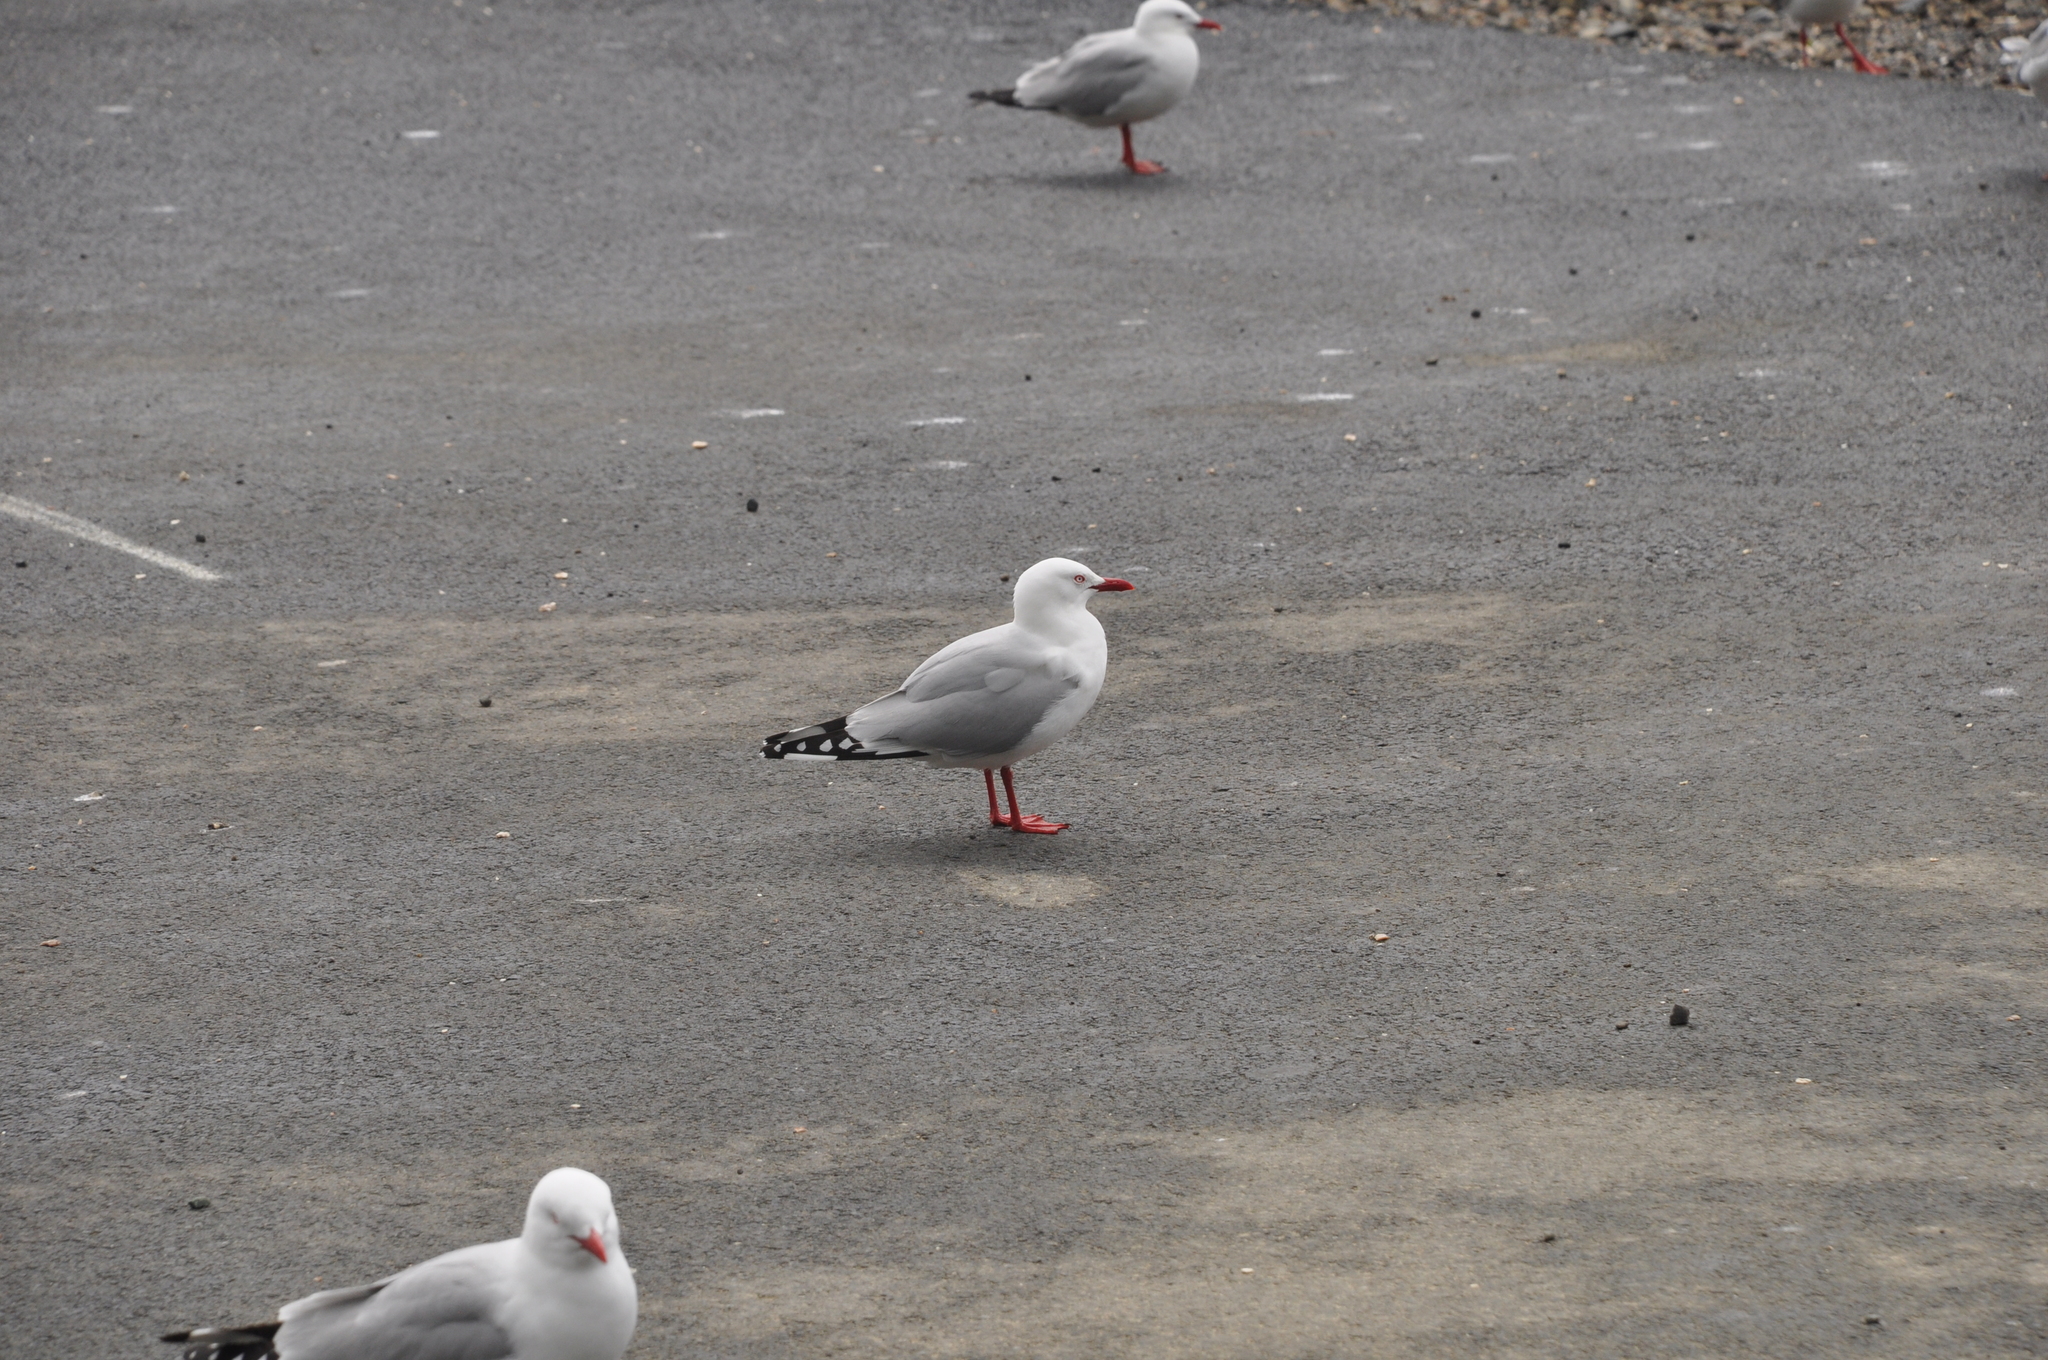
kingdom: Animalia
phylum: Chordata
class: Aves
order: Charadriiformes
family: Laridae
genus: Chroicocephalus
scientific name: Chroicocephalus novaehollandiae
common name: Silver gull
